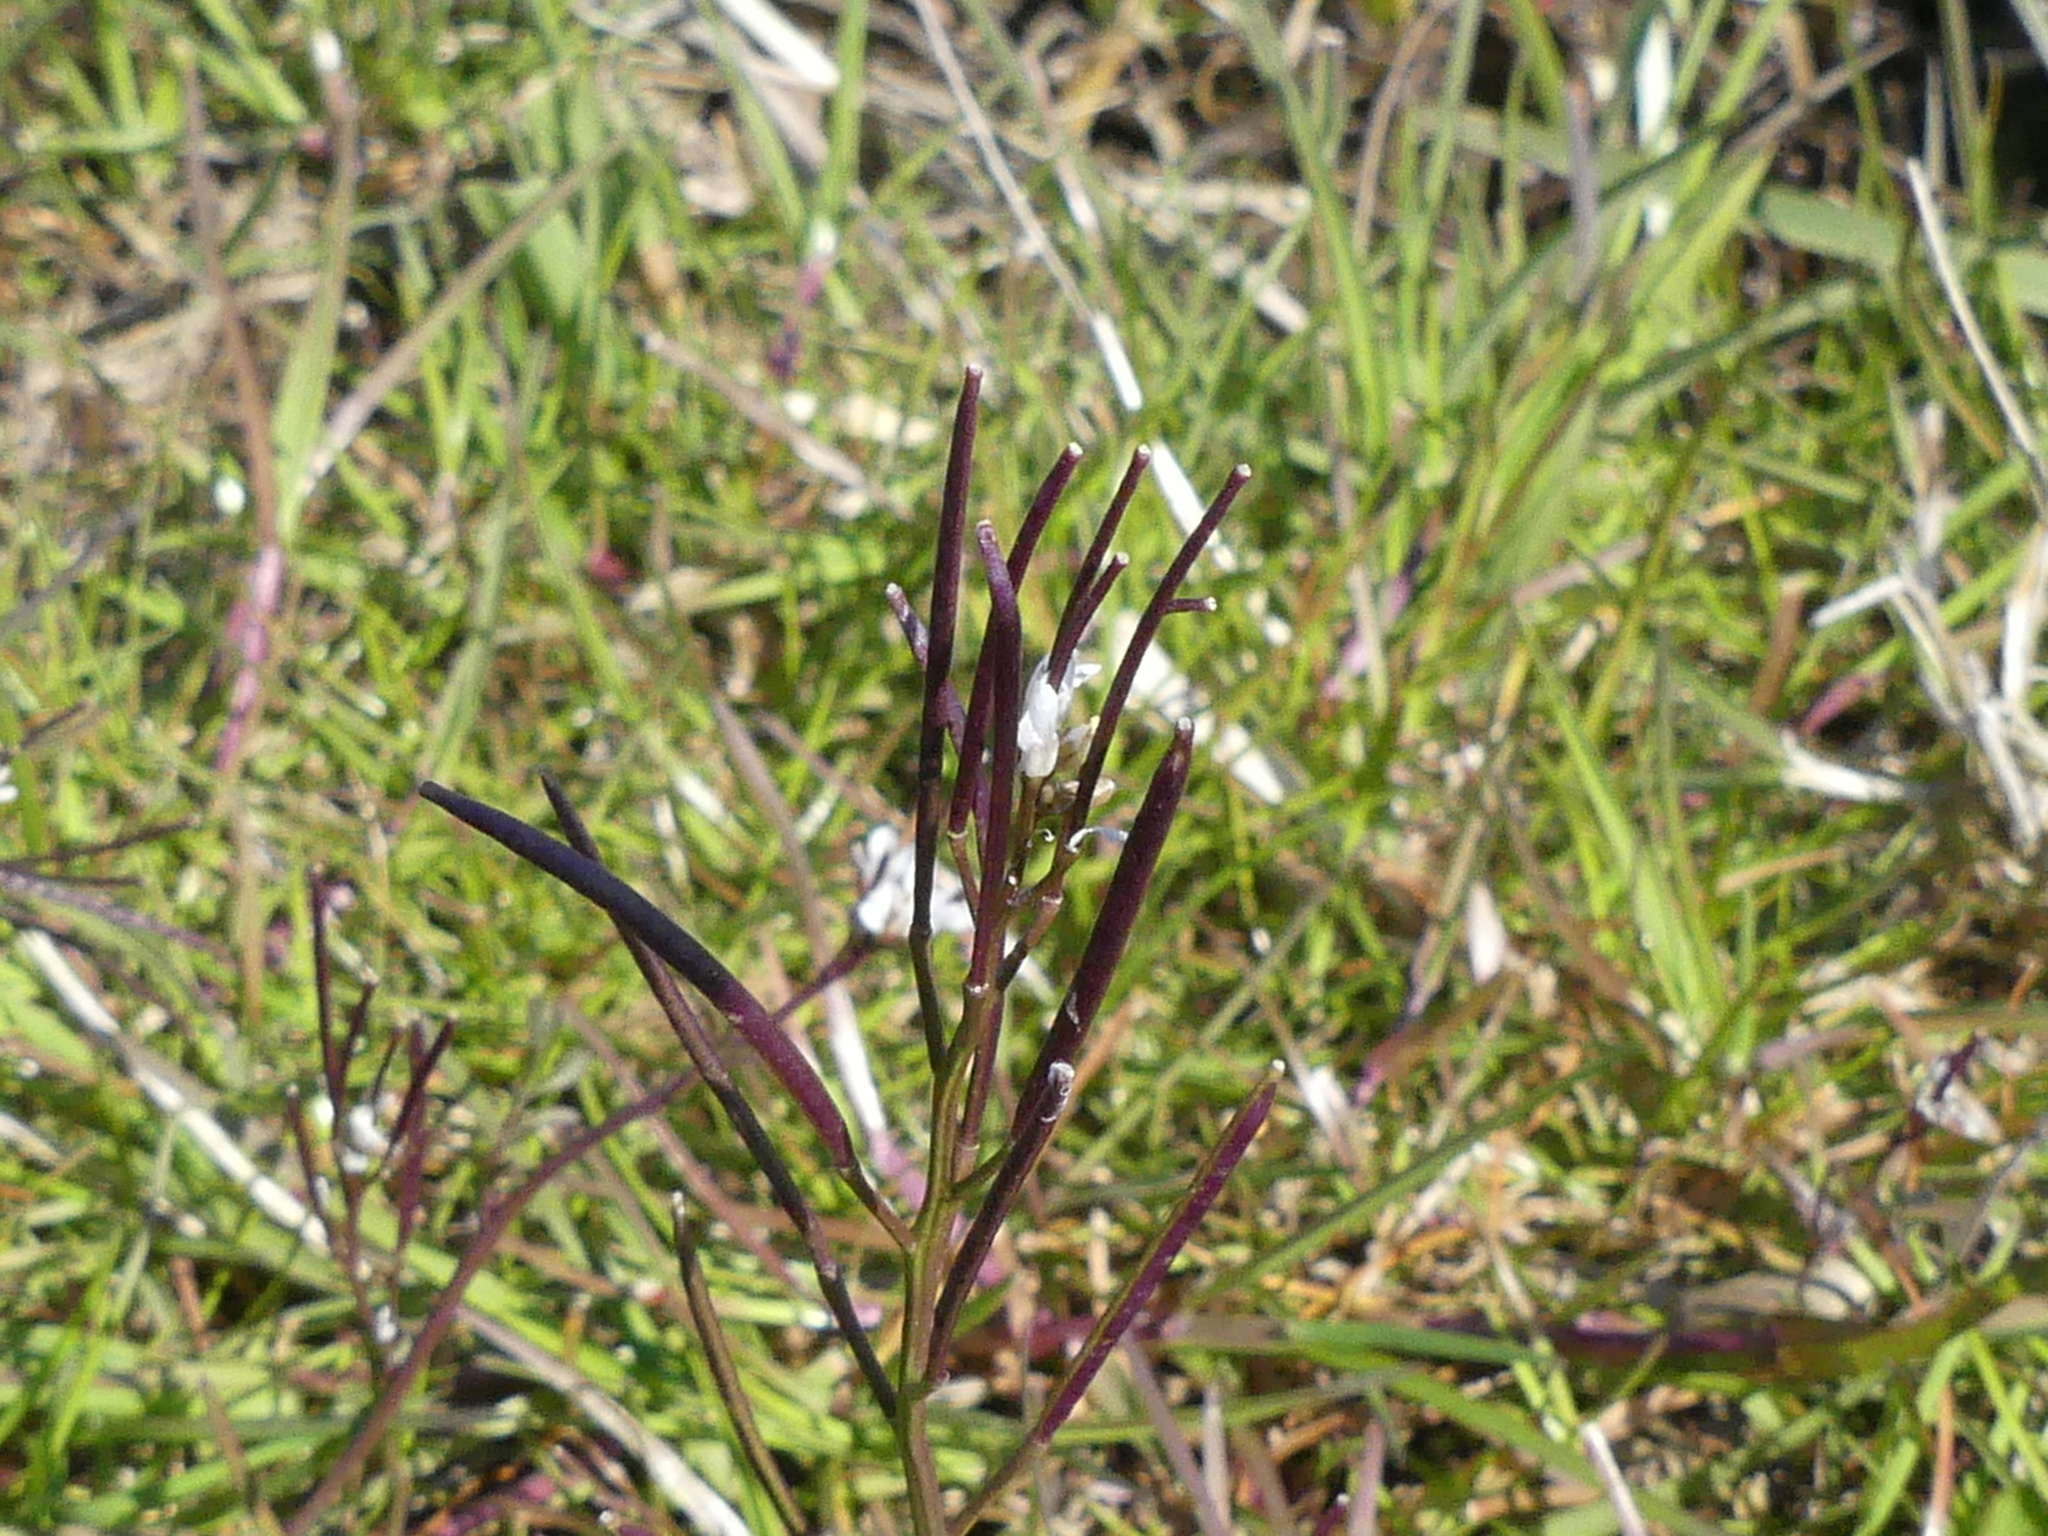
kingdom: Plantae
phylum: Tracheophyta
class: Magnoliopsida
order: Brassicales
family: Brassicaceae
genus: Cardamine
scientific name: Cardamine hirsuta
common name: Hairy bittercress
